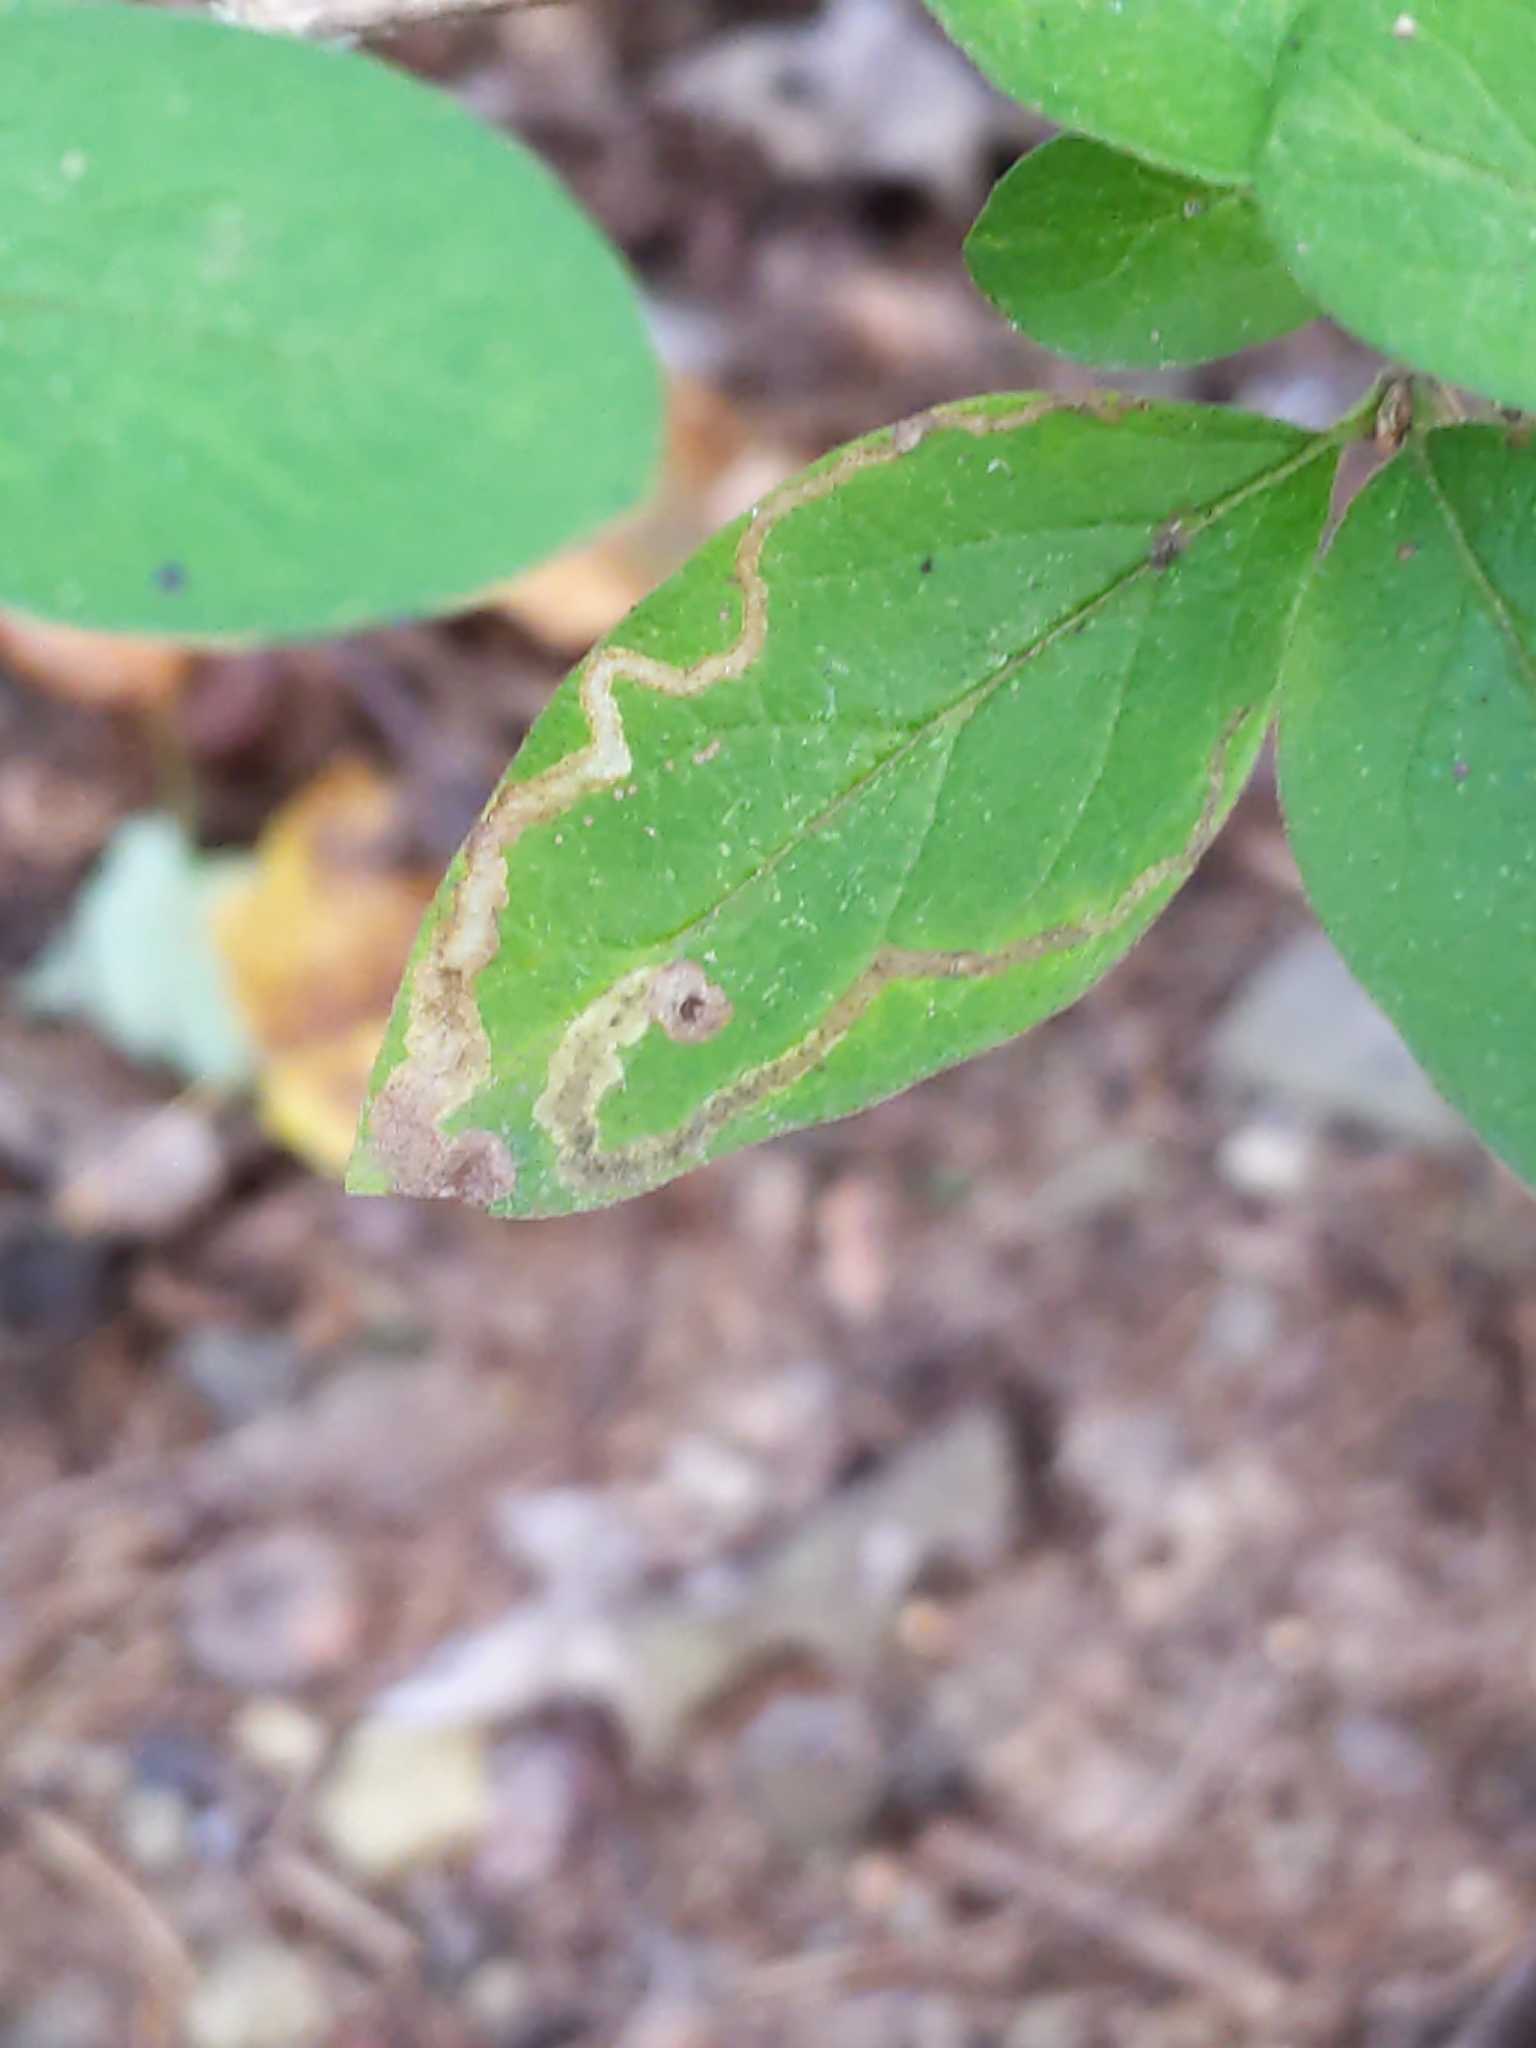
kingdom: Animalia
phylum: Arthropoda
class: Insecta
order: Diptera
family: Agromyzidae
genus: Aulagromyza
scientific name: Aulagromyza
